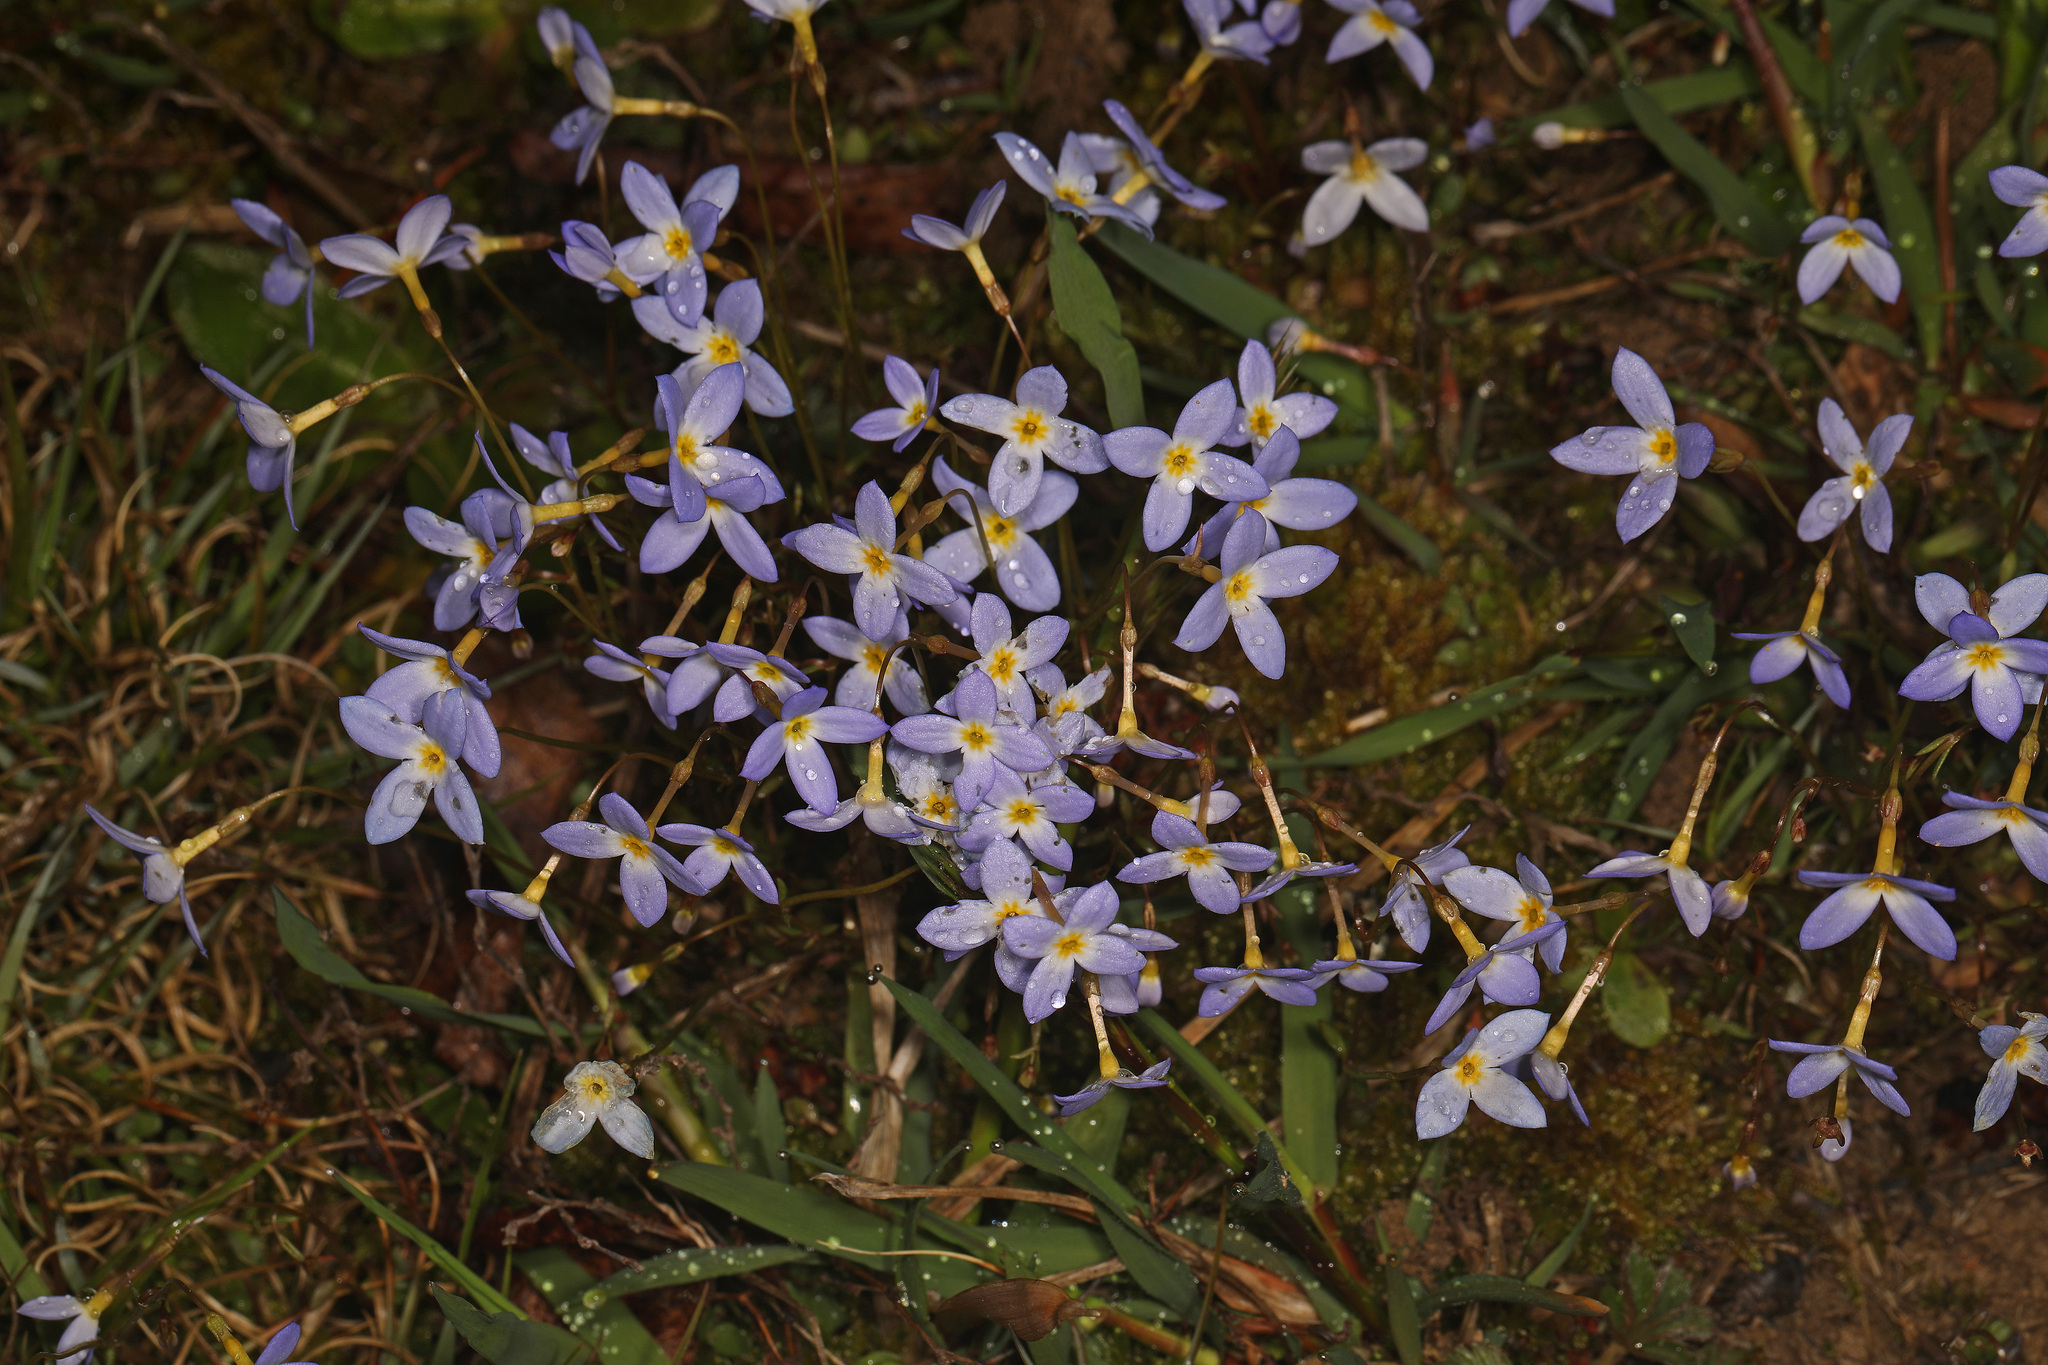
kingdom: Plantae
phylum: Tracheophyta
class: Magnoliopsida
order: Gentianales
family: Rubiaceae
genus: Houstonia
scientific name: Houstonia caerulea
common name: Bluets
